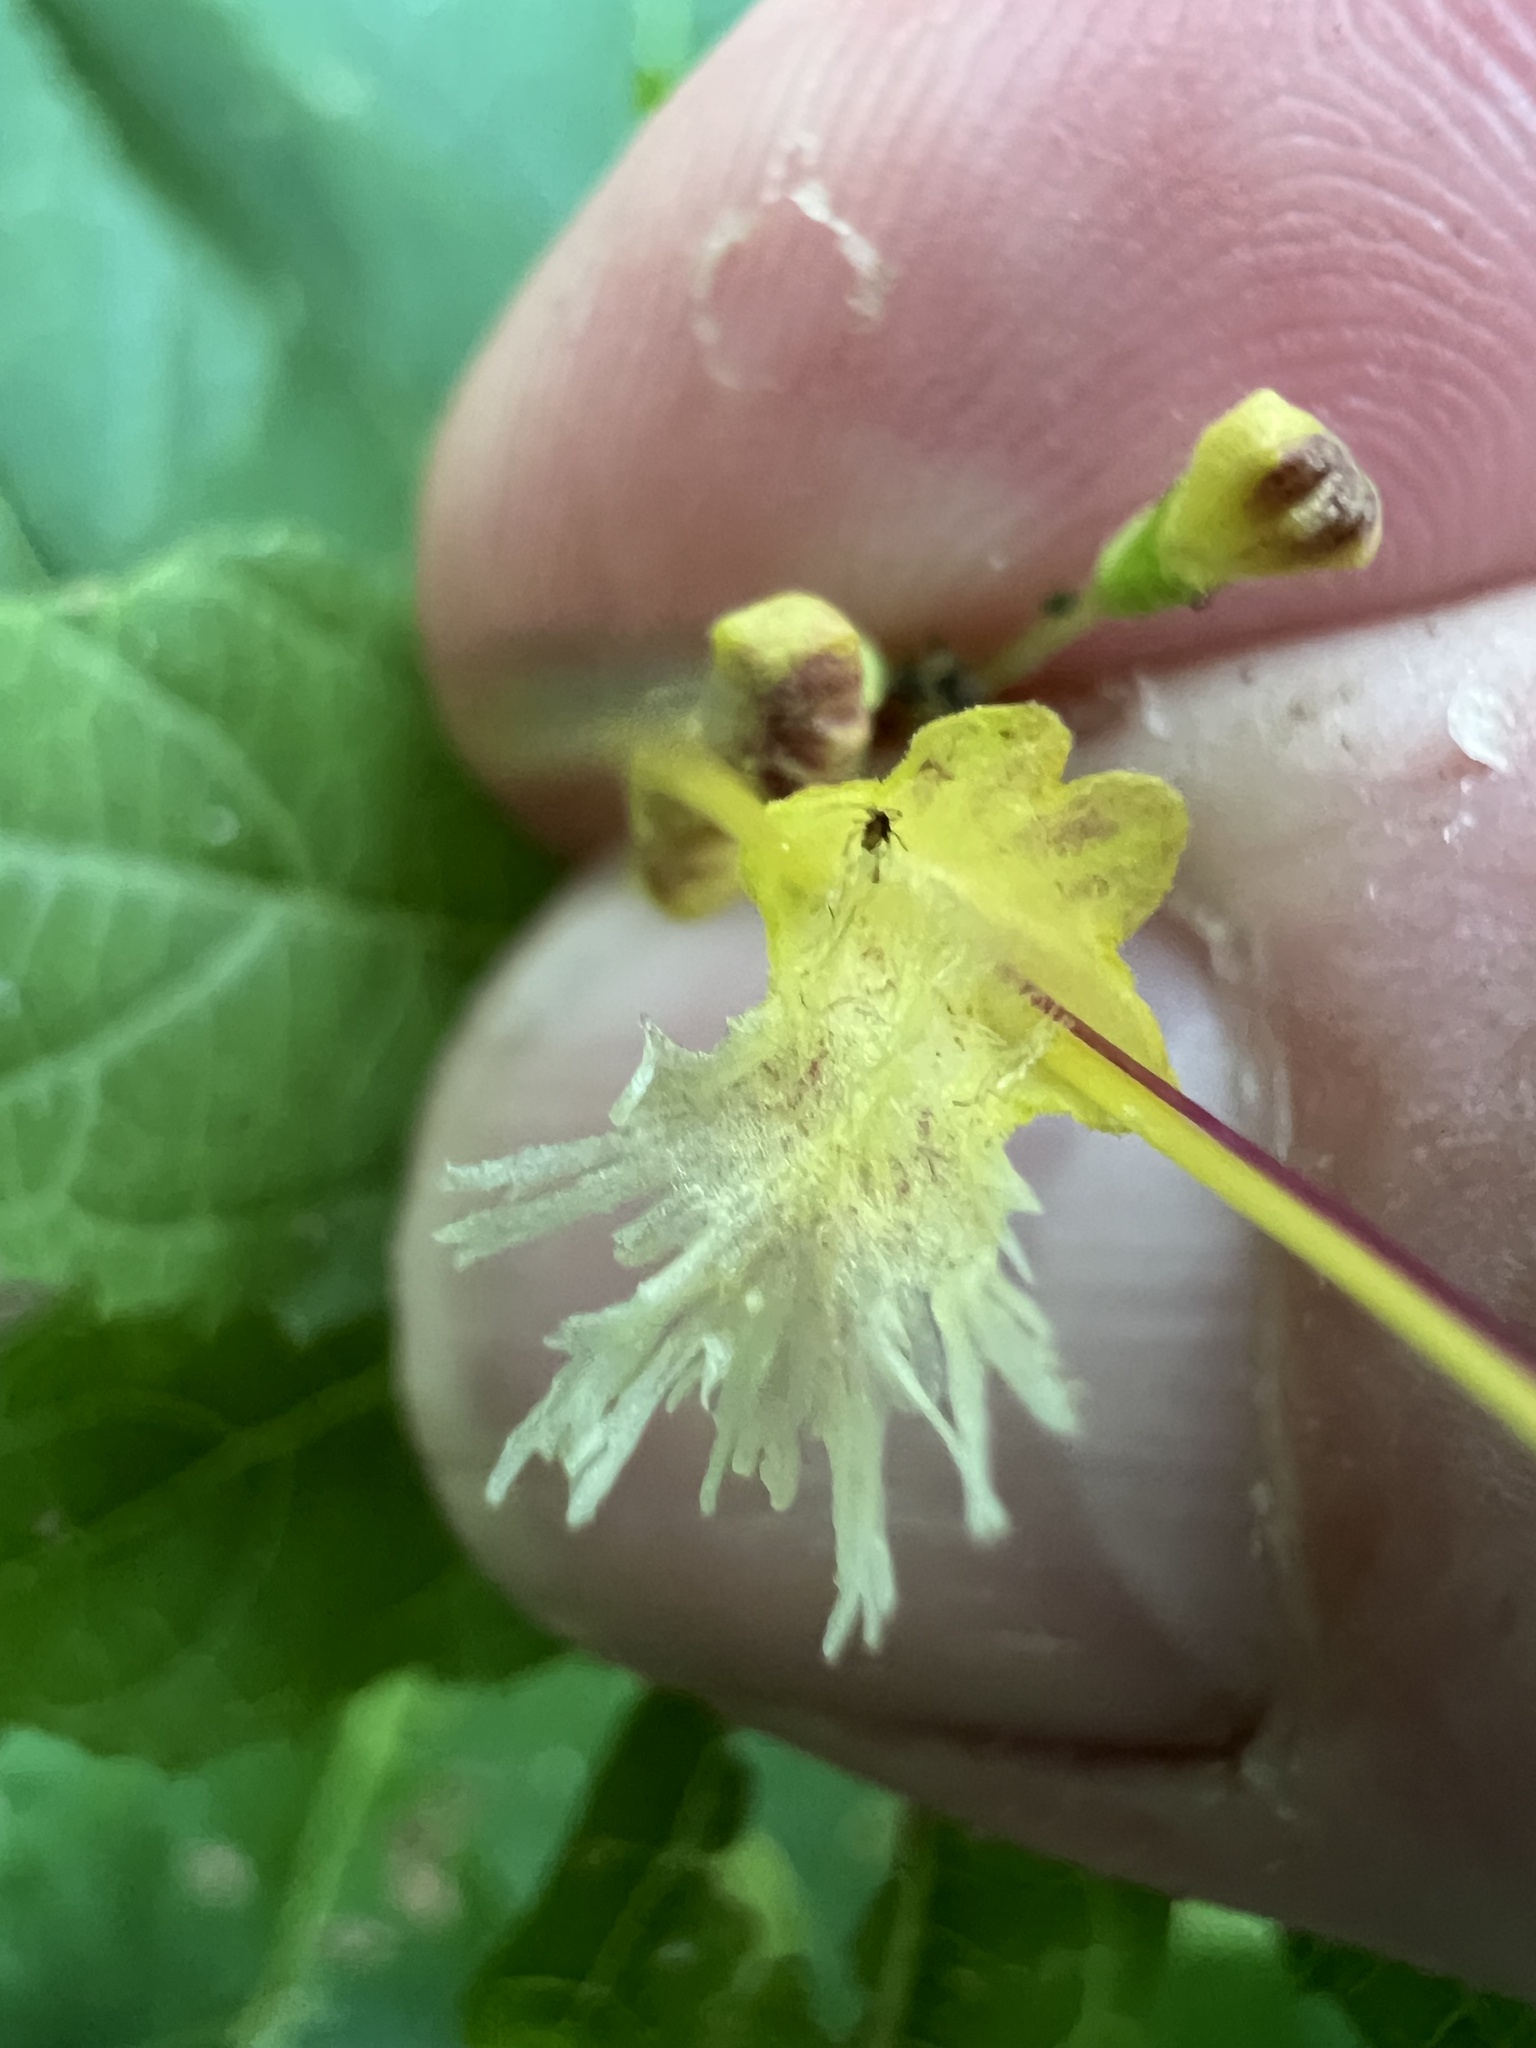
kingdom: Plantae
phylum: Tracheophyta
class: Magnoliopsida
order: Lamiales
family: Lamiaceae
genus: Collinsonia
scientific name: Collinsonia canadensis
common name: Northern horsebalm
